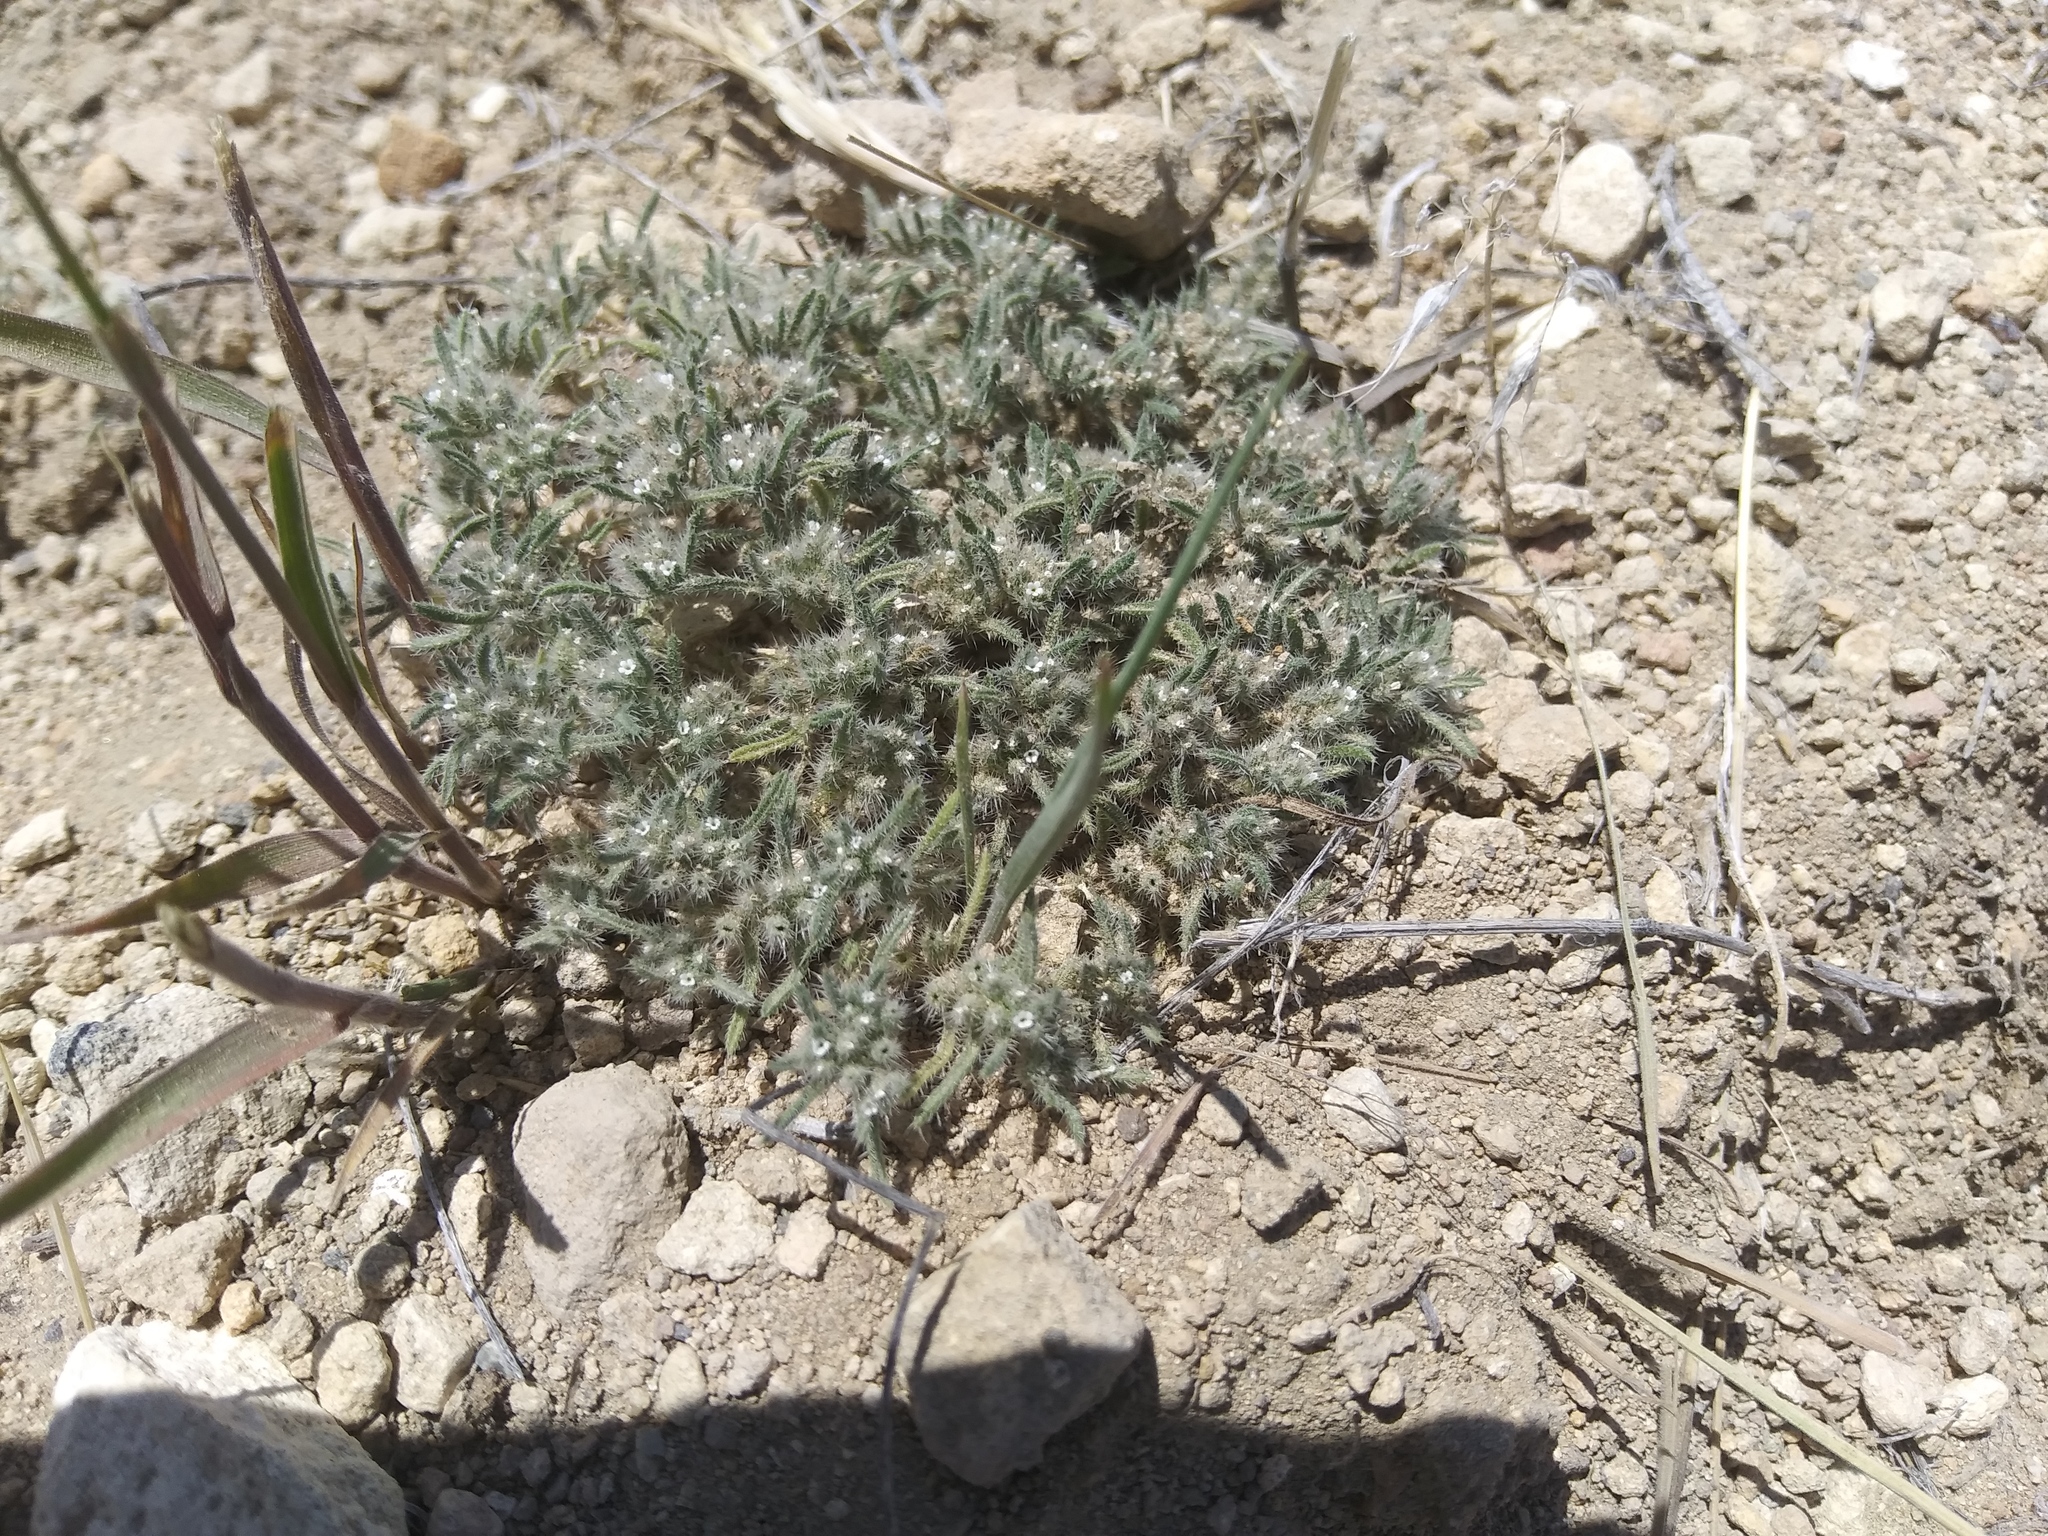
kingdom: Plantae
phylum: Tracheophyta
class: Magnoliopsida
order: Boraginales
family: Boraginaceae
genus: Greeneocharis
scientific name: Greeneocharis circumscissa
